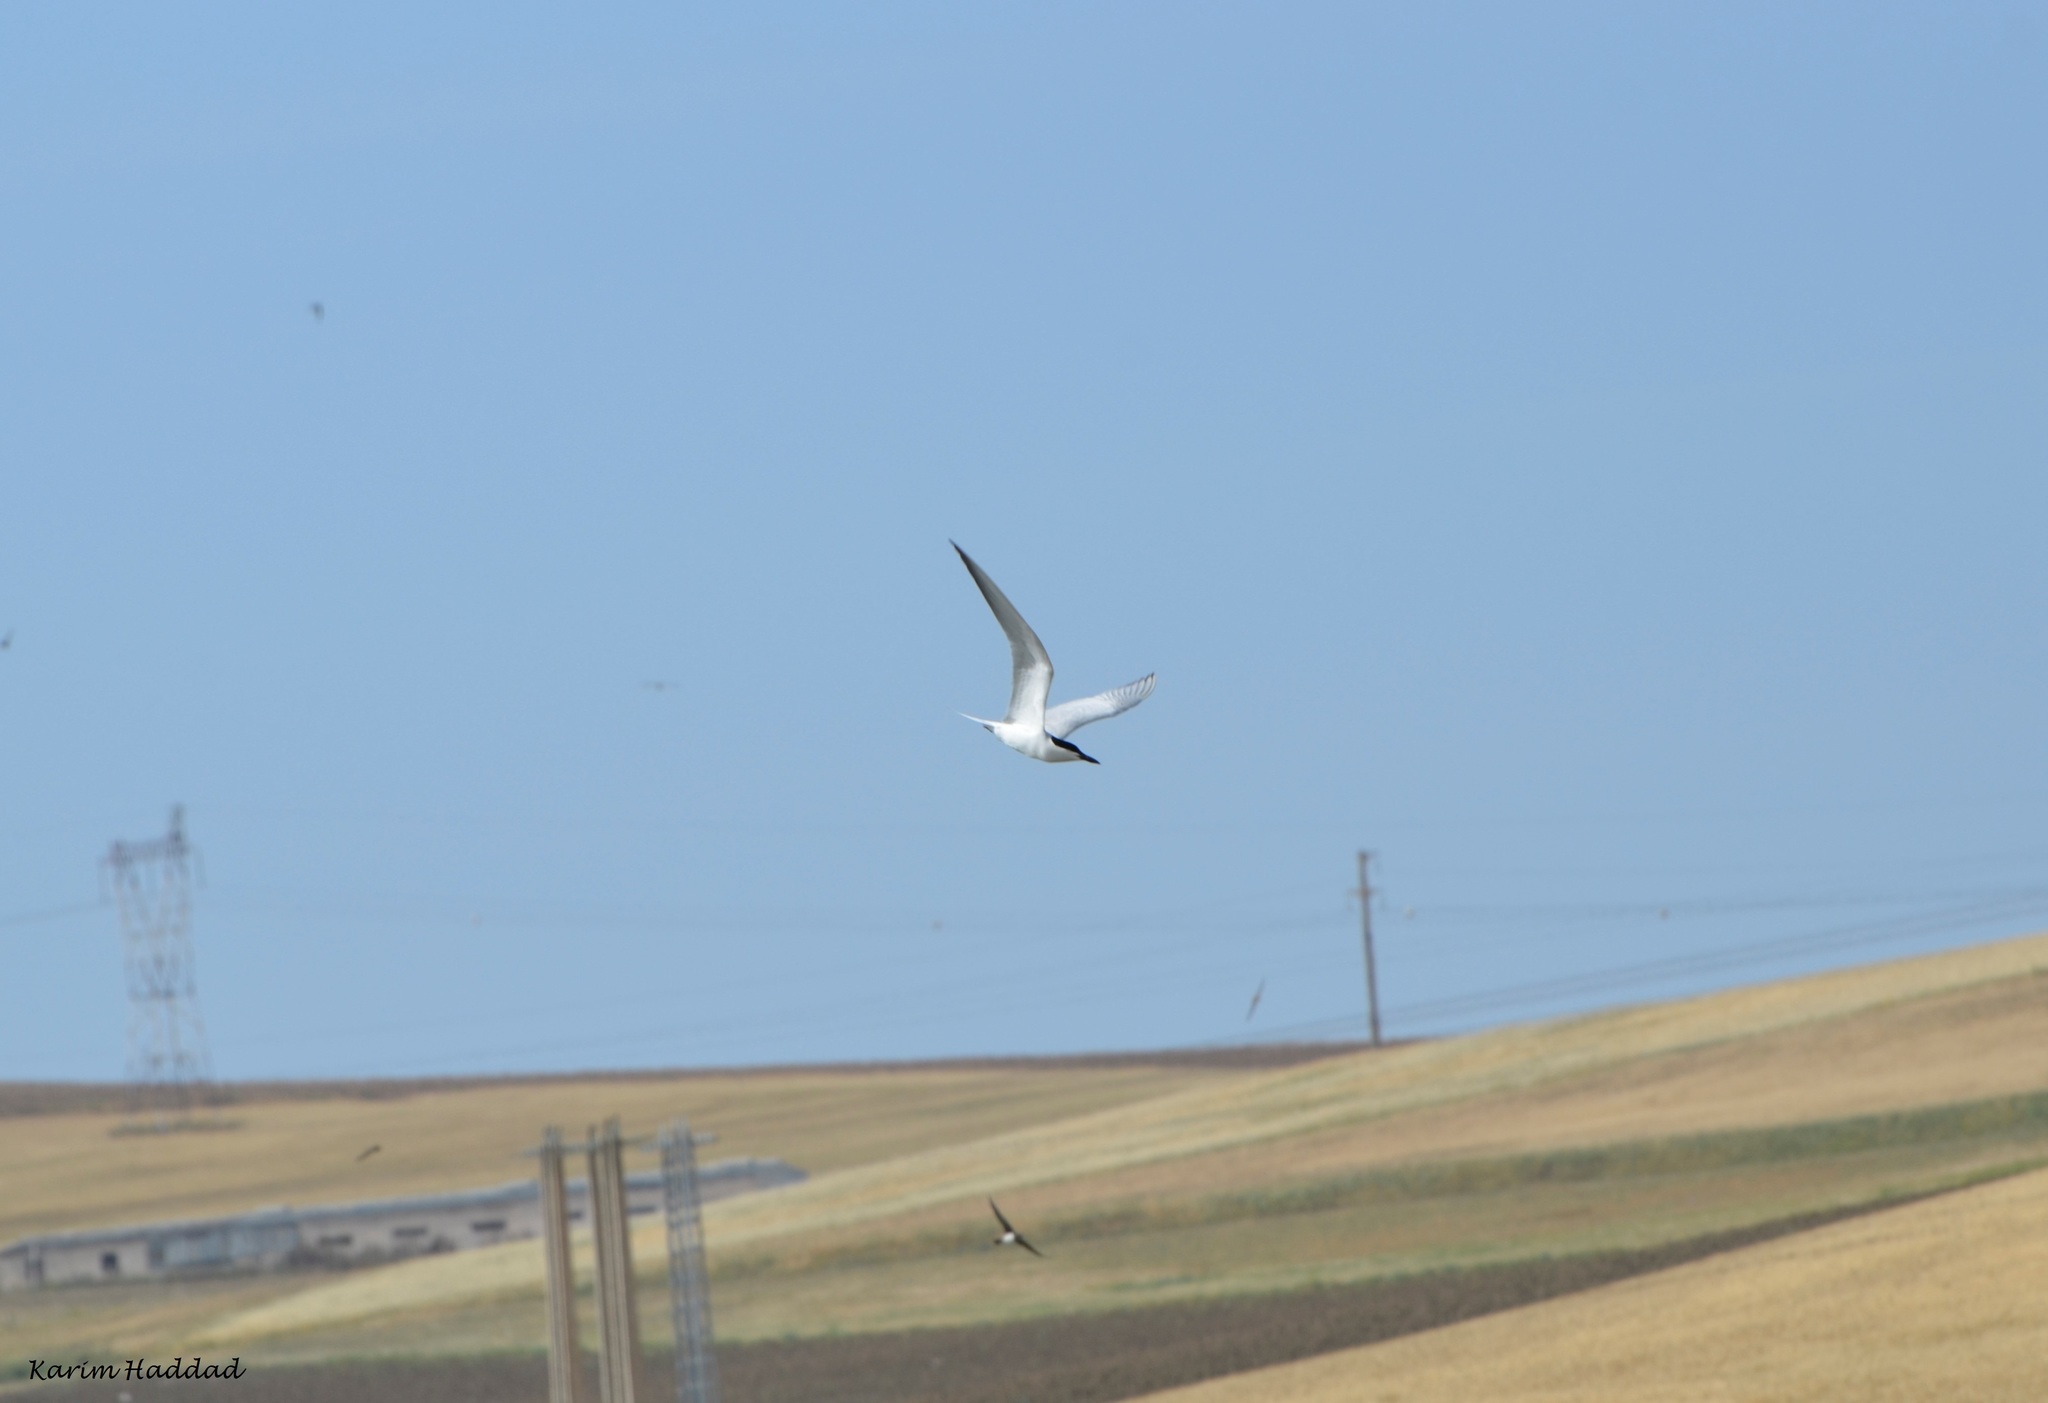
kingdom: Animalia
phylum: Chordata
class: Aves
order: Charadriiformes
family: Laridae
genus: Gelochelidon
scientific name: Gelochelidon nilotica
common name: Gull-billed tern
